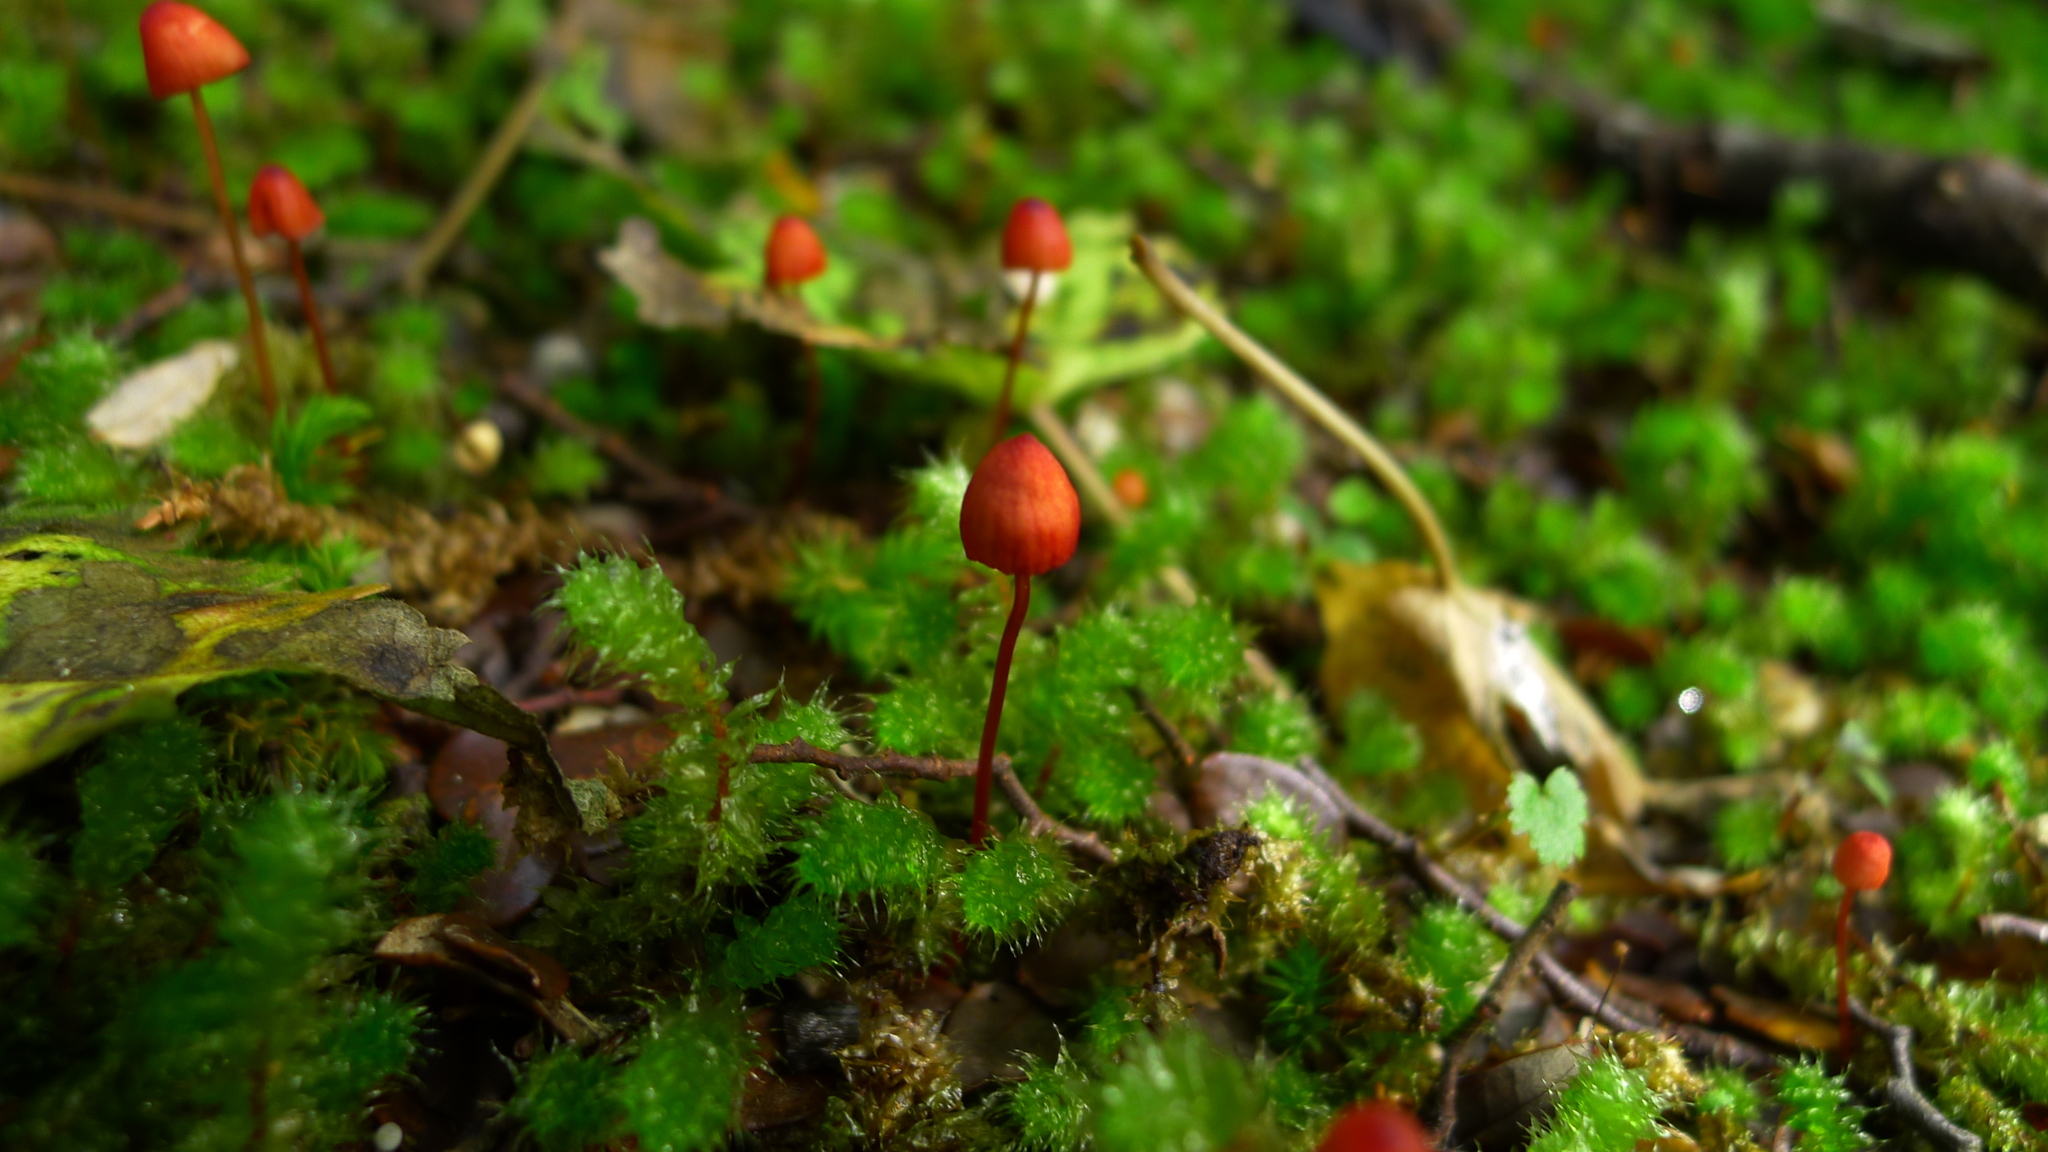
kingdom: Fungi
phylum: Basidiomycota
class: Agaricomycetes
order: Agaricales
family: Mycenaceae
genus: Mycena
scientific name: Mycena ura
